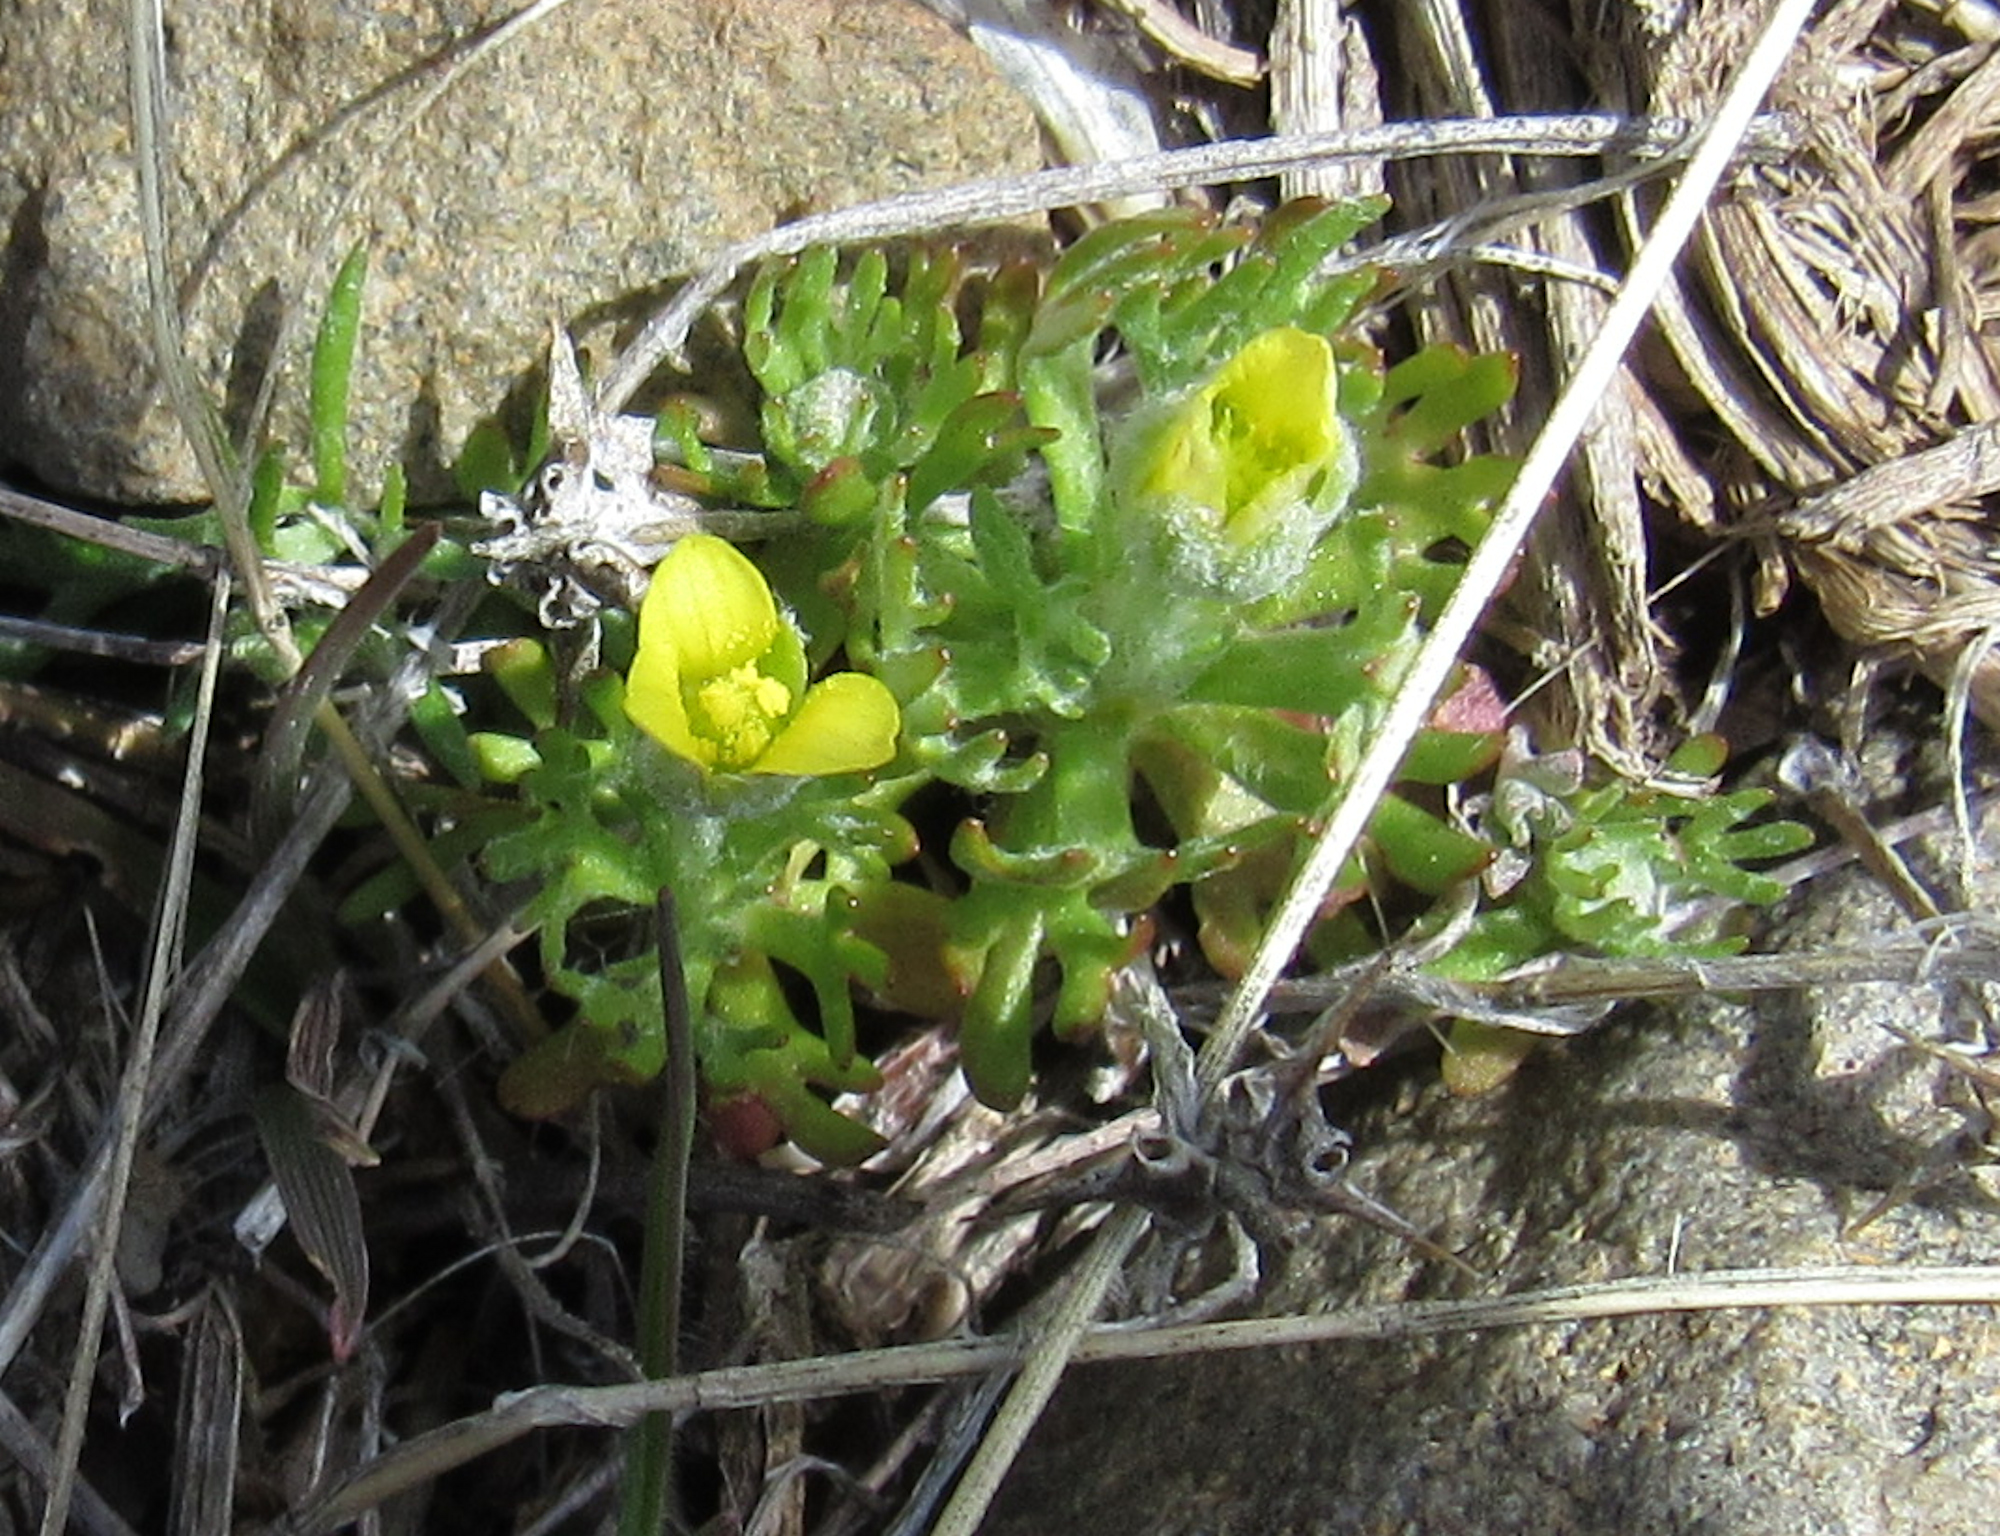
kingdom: Plantae
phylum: Tracheophyta
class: Magnoliopsida
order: Ranunculales
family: Ranunculaceae
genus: Ceratocephala
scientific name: Ceratocephala orthoceras
